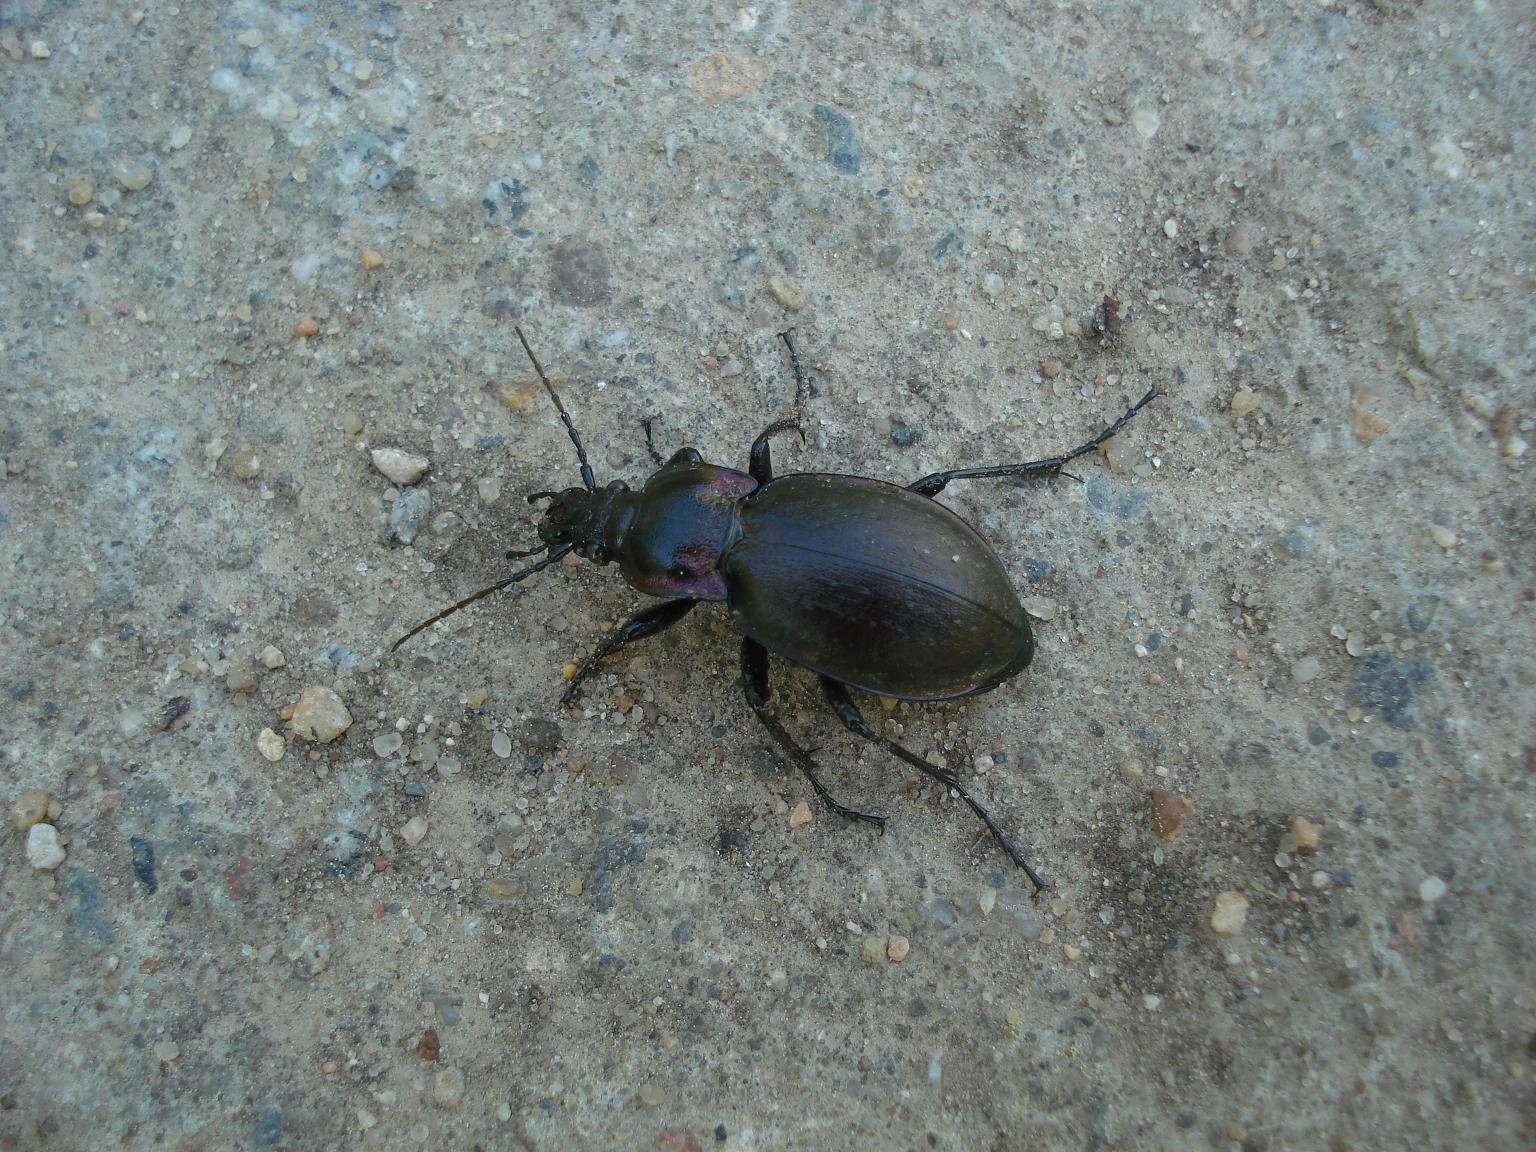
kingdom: Animalia
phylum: Arthropoda
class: Insecta
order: Coleoptera
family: Carabidae
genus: Carabus
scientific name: Carabus nemoralis
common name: European ground beetle
